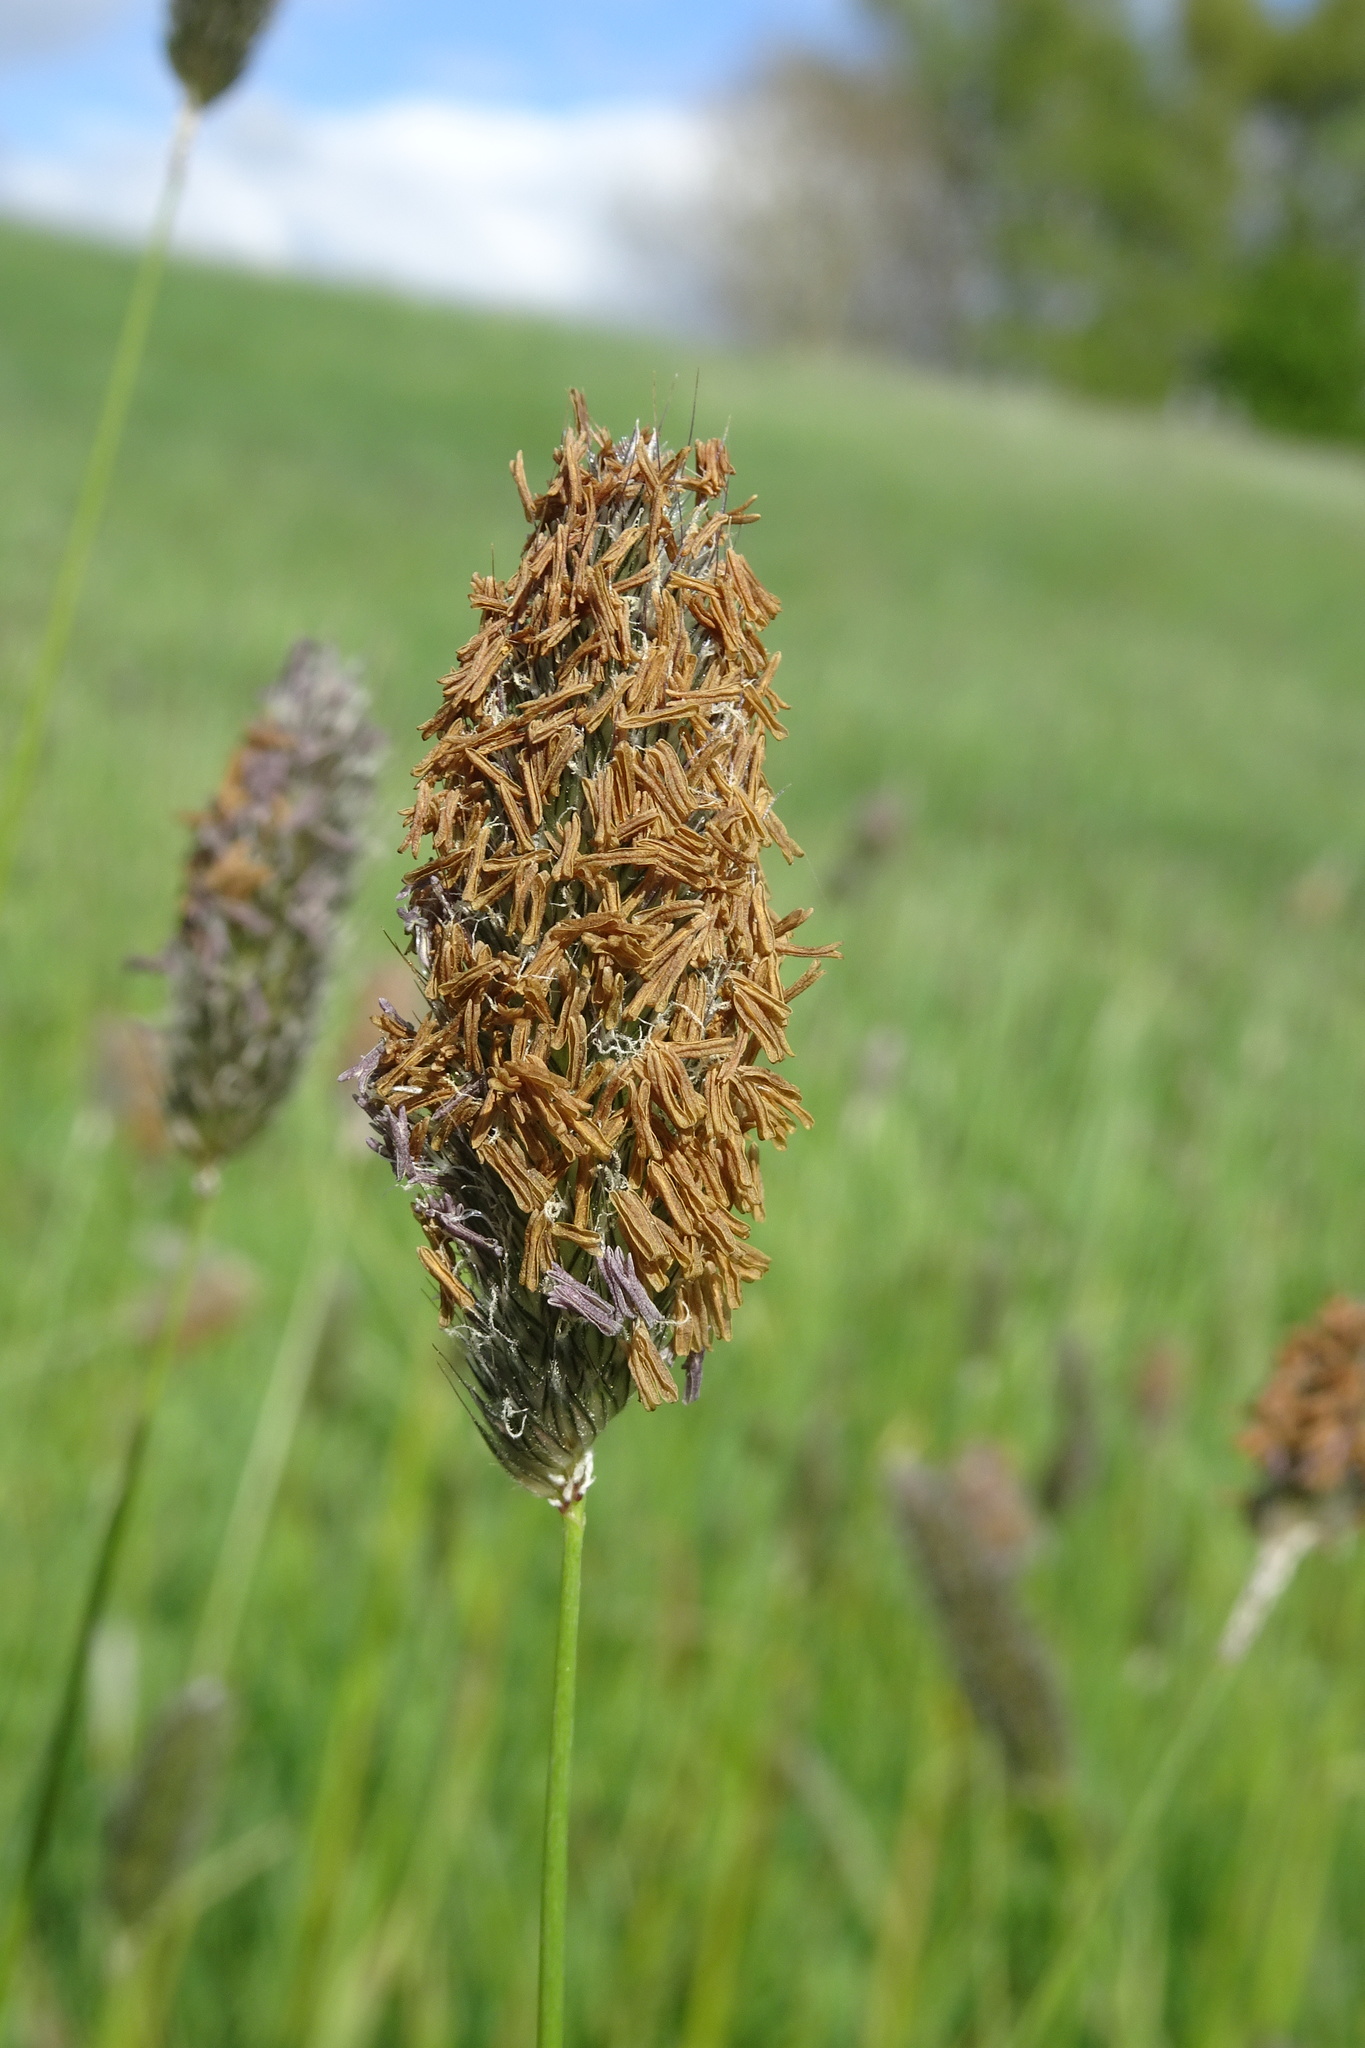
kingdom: Plantae
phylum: Tracheophyta
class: Liliopsida
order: Poales
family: Poaceae
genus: Alopecurus
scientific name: Alopecurus pratensis
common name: Meadow foxtail
